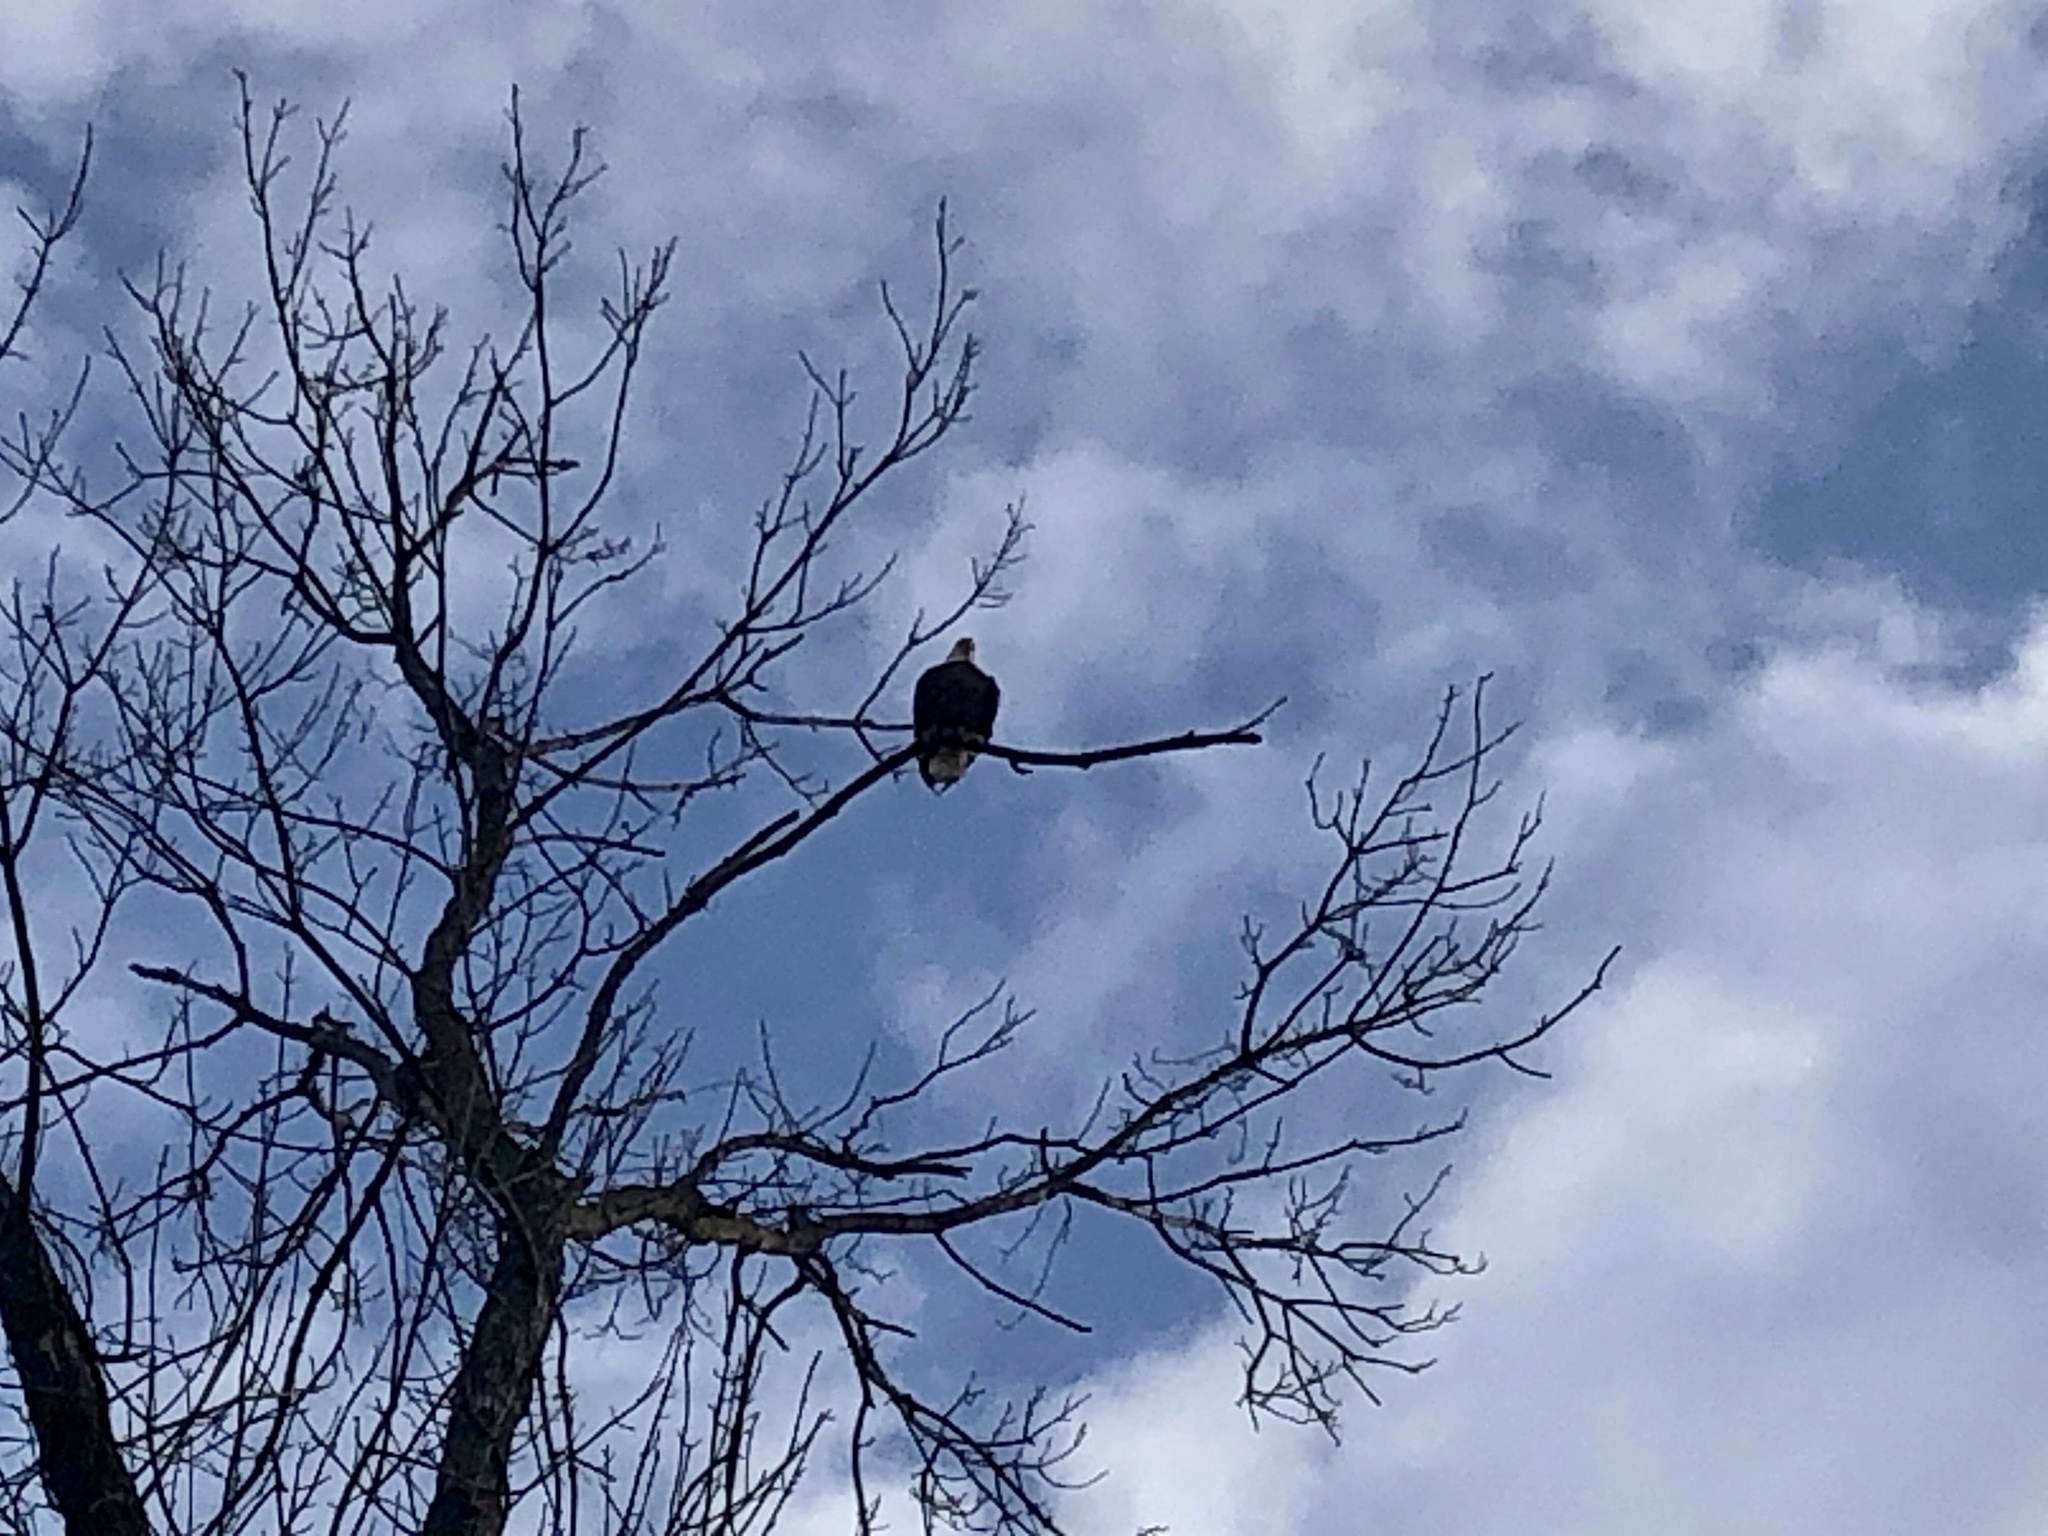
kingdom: Animalia
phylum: Chordata
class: Aves
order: Accipitriformes
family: Accipitridae
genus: Haliaeetus
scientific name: Haliaeetus leucocephalus
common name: Bald eagle
